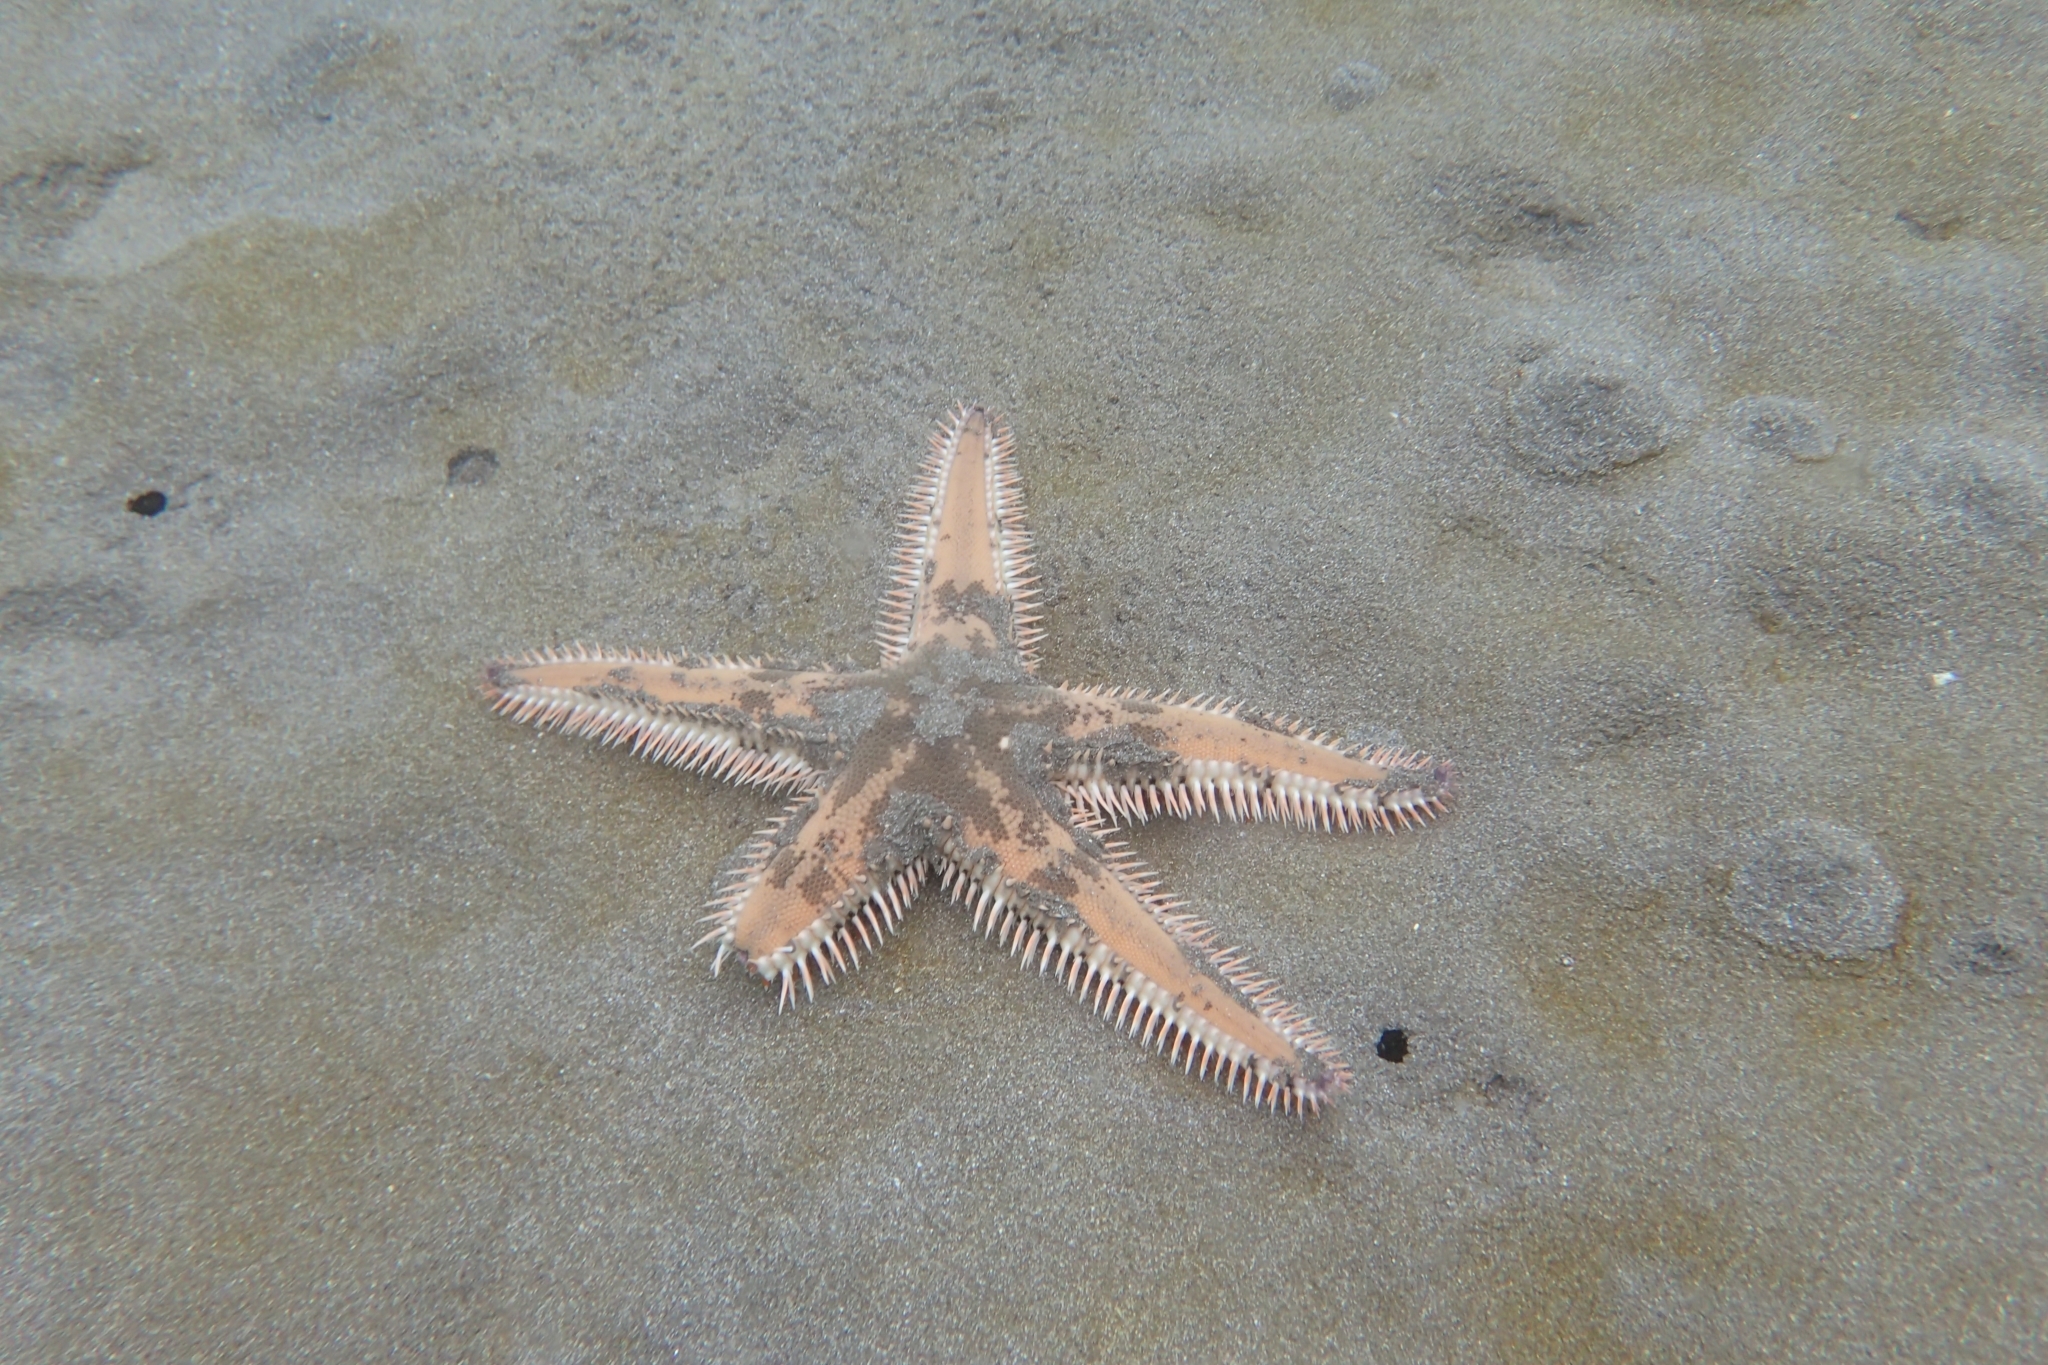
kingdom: Animalia
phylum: Echinodermata
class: Asteroidea
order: Paxillosida
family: Astropectinidae
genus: Astropecten
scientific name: Astropecten polyacanthus
